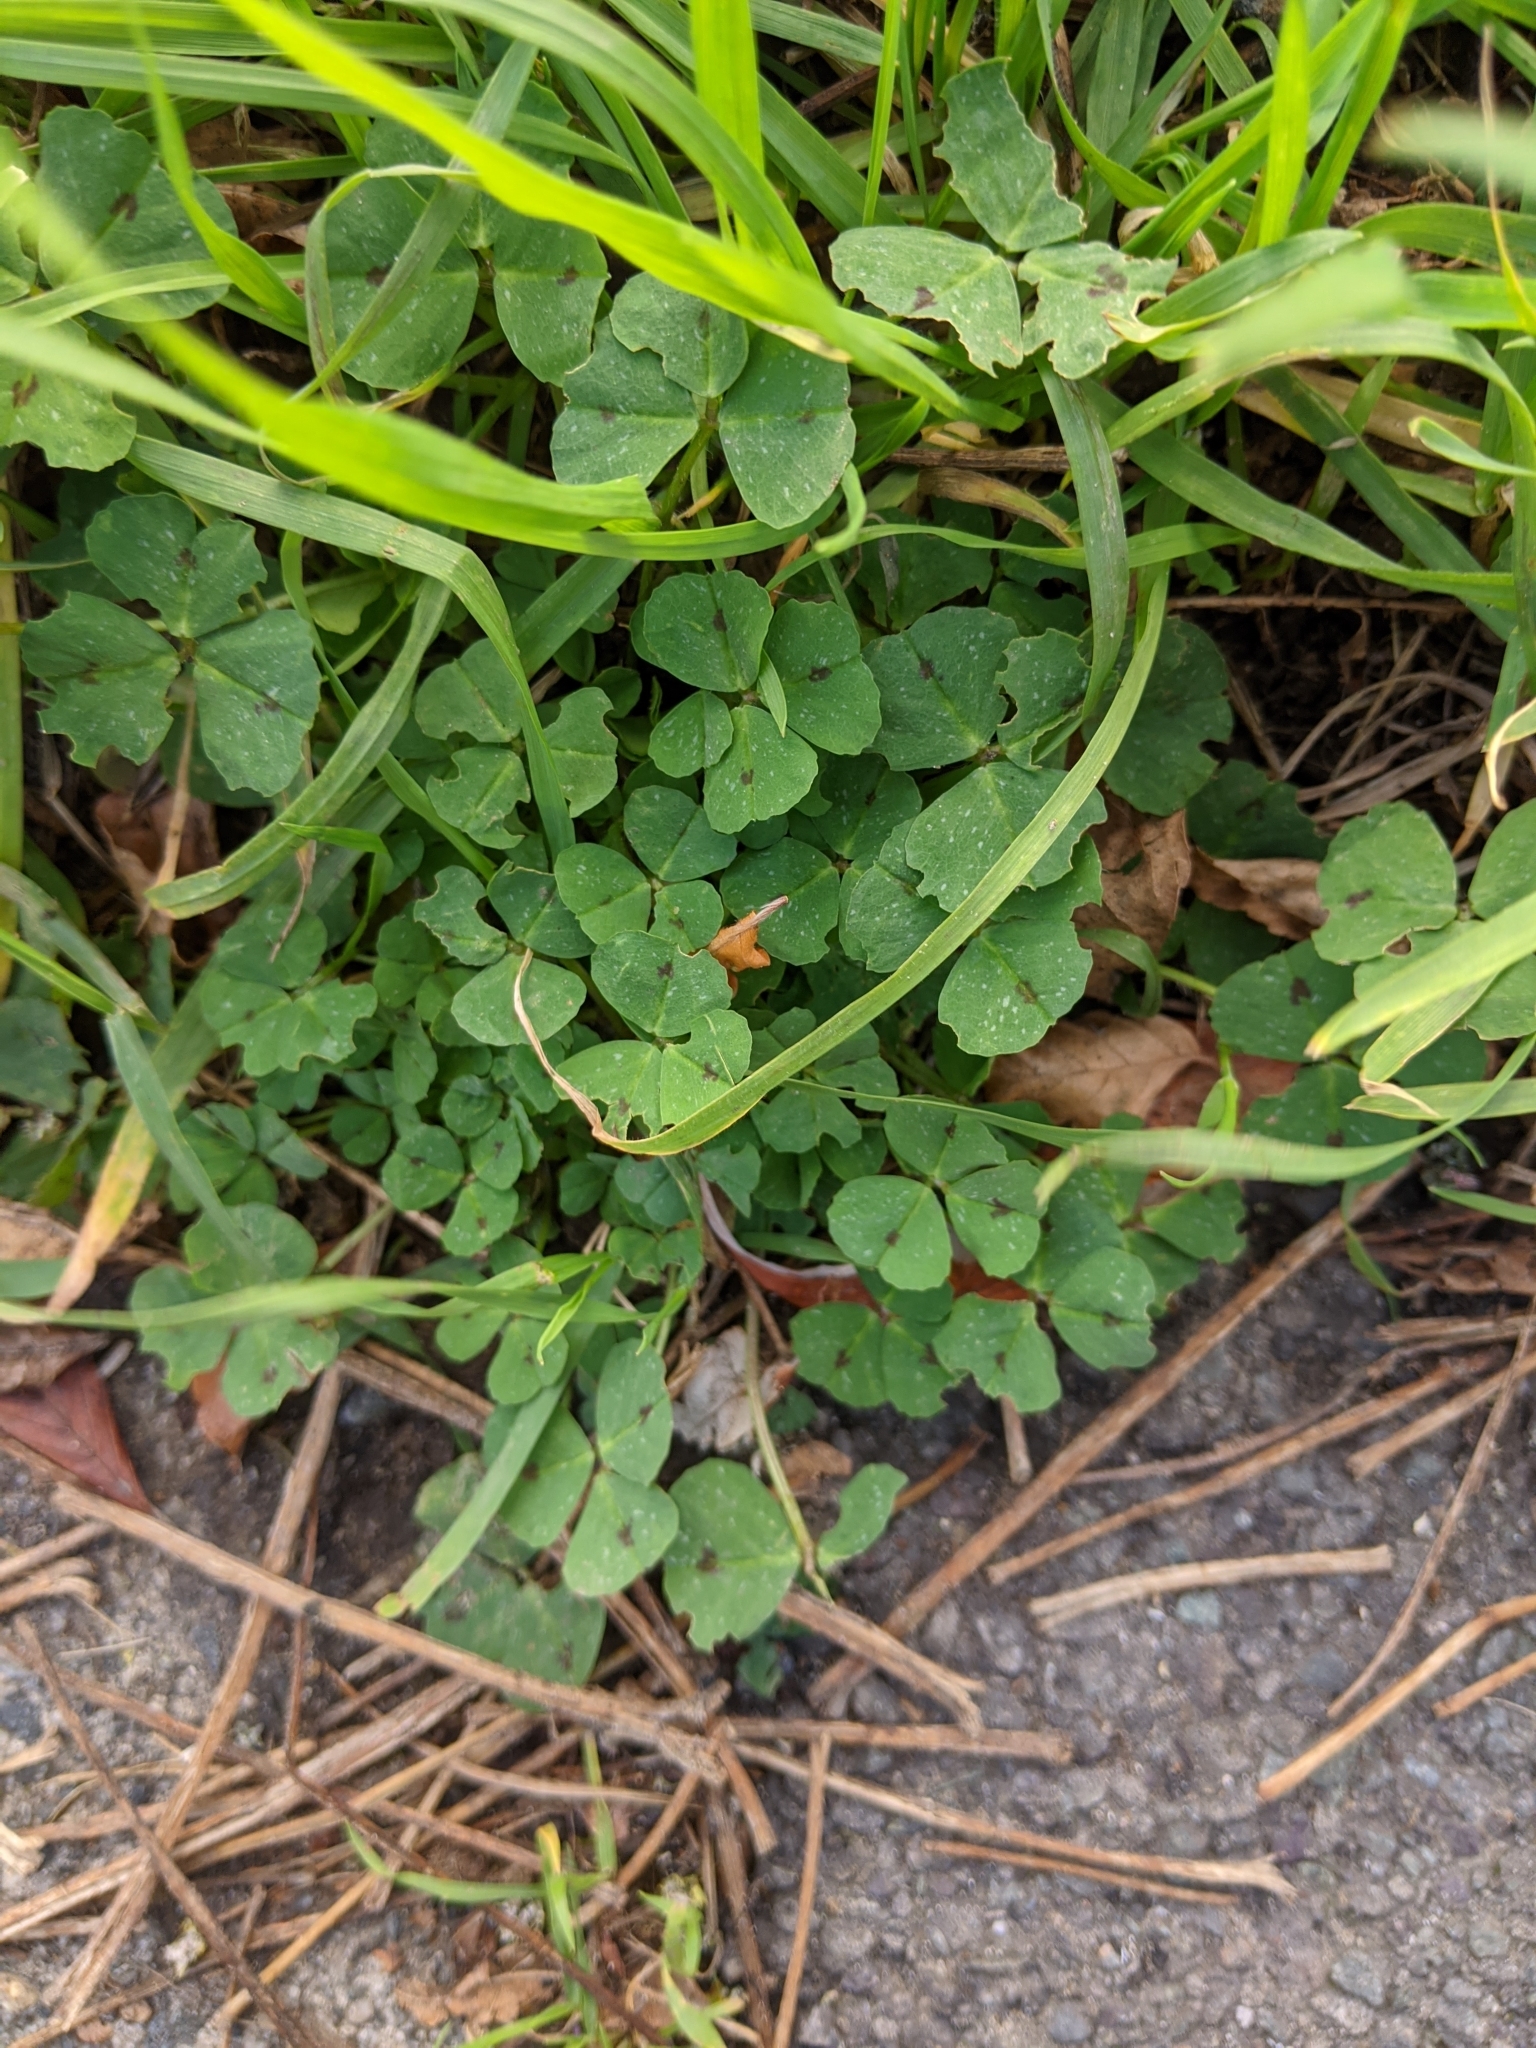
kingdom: Plantae
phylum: Tracheophyta
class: Magnoliopsida
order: Fabales
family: Fabaceae
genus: Medicago
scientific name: Medicago arabica
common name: Spotted medick
